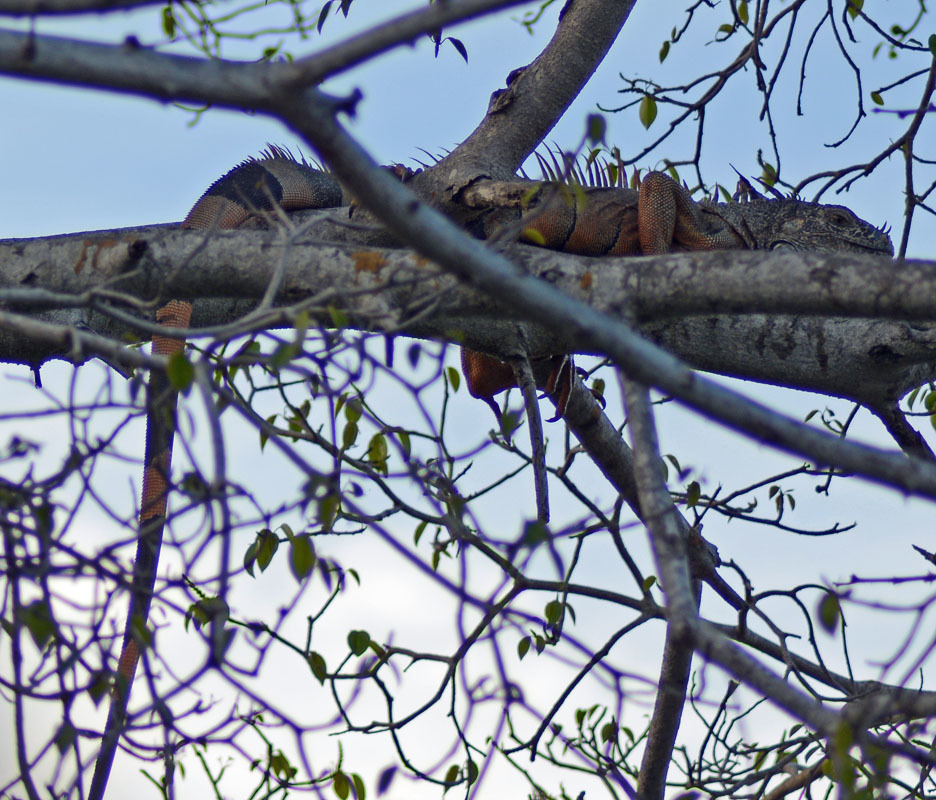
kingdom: Animalia
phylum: Chordata
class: Squamata
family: Iguanidae
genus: Iguana
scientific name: Iguana iguana
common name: Green iguana
